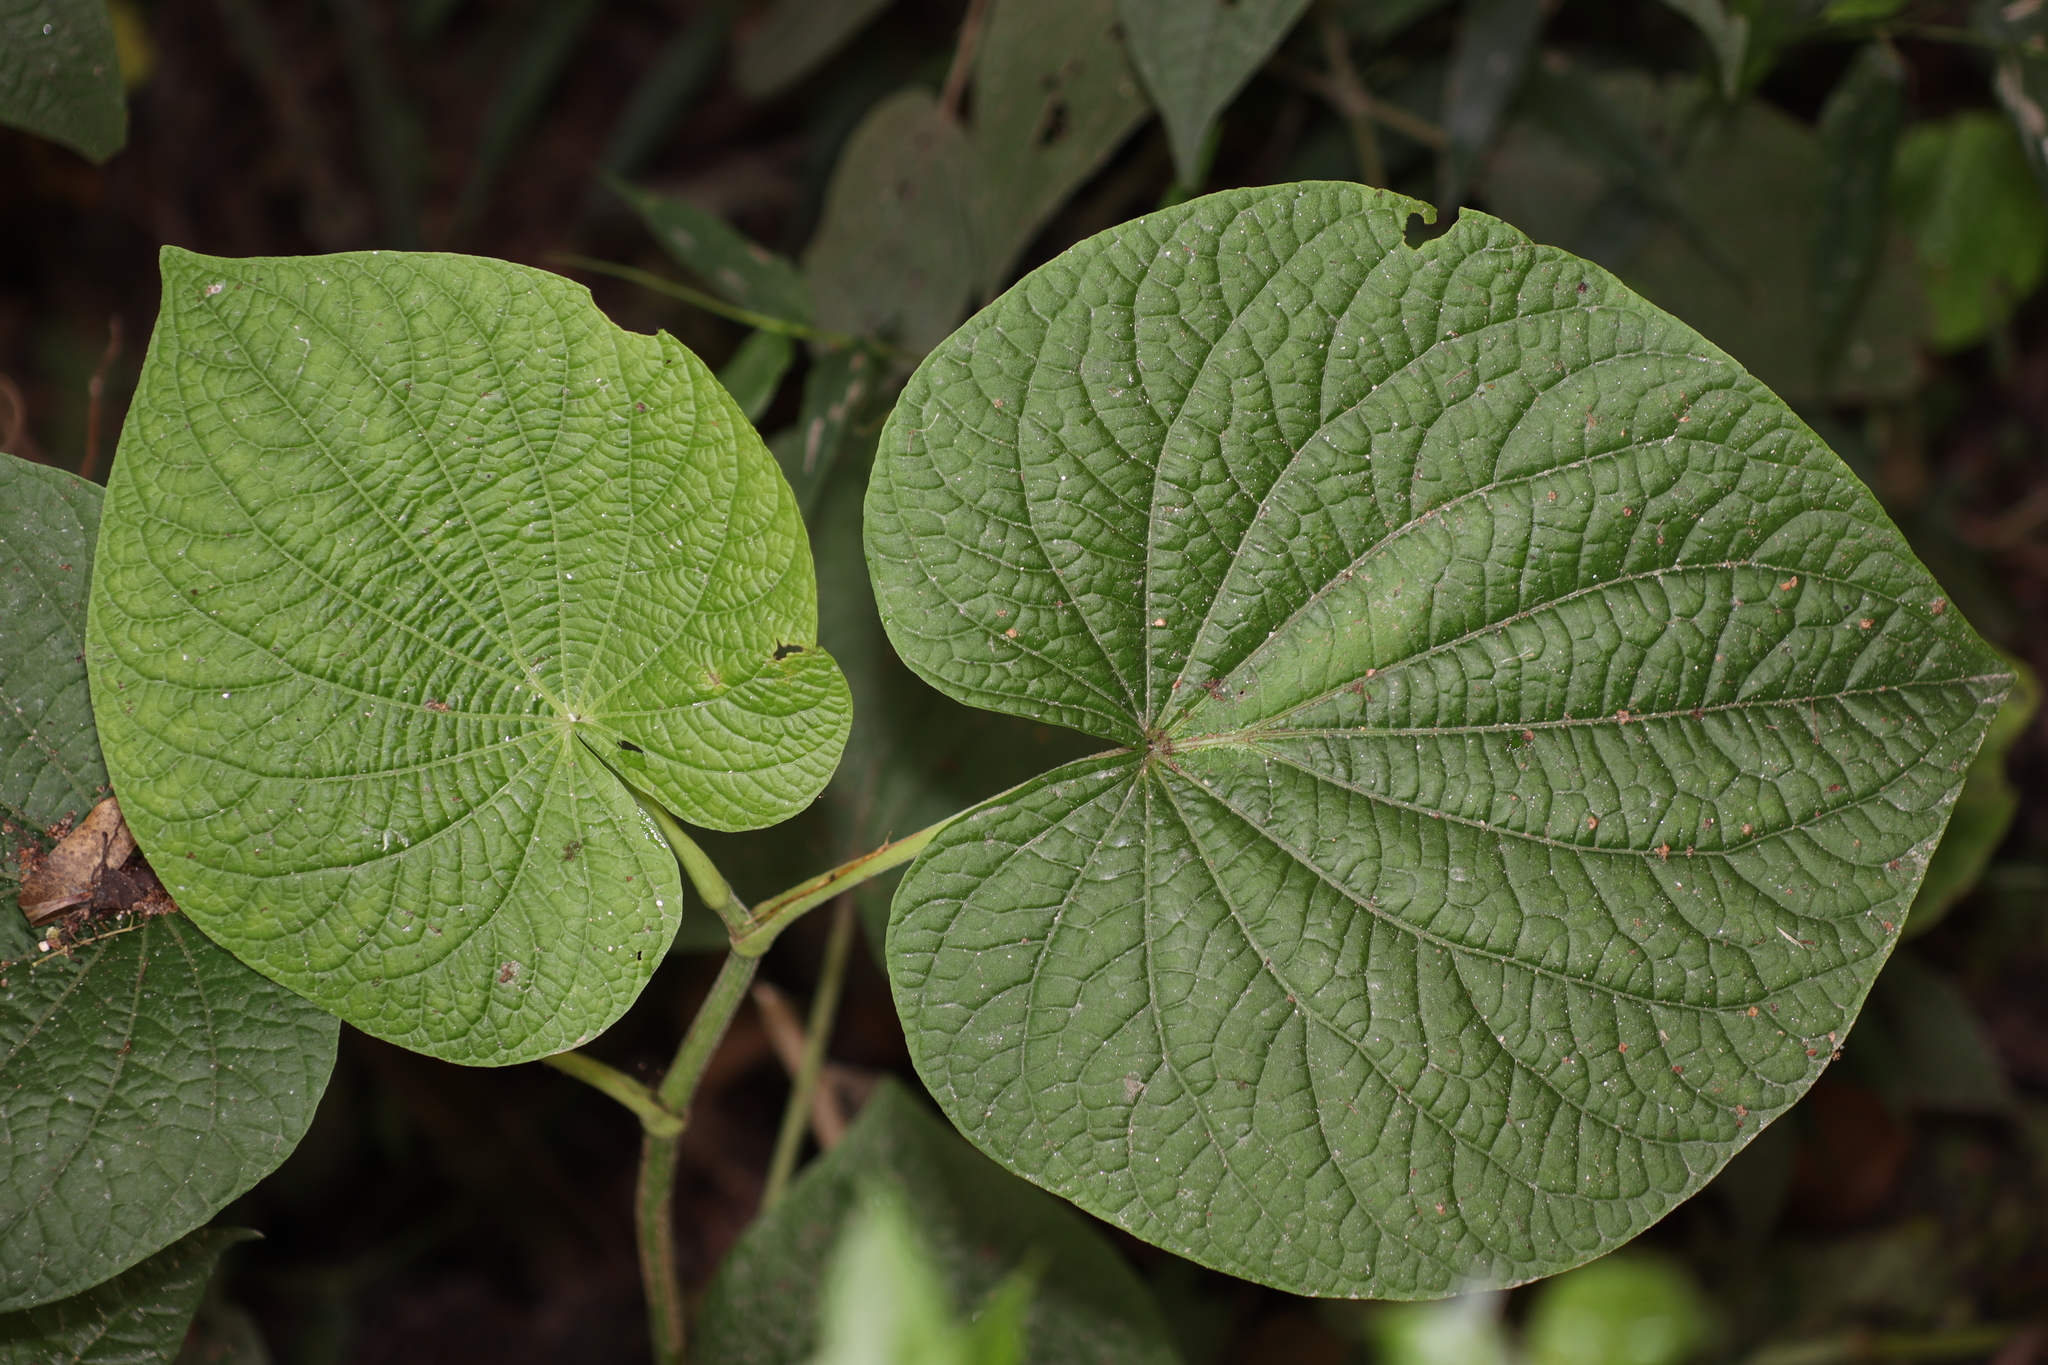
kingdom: Plantae
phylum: Tracheophyta
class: Magnoliopsida
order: Piperales
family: Piperaceae
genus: Piper
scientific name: Piper umbellatum
